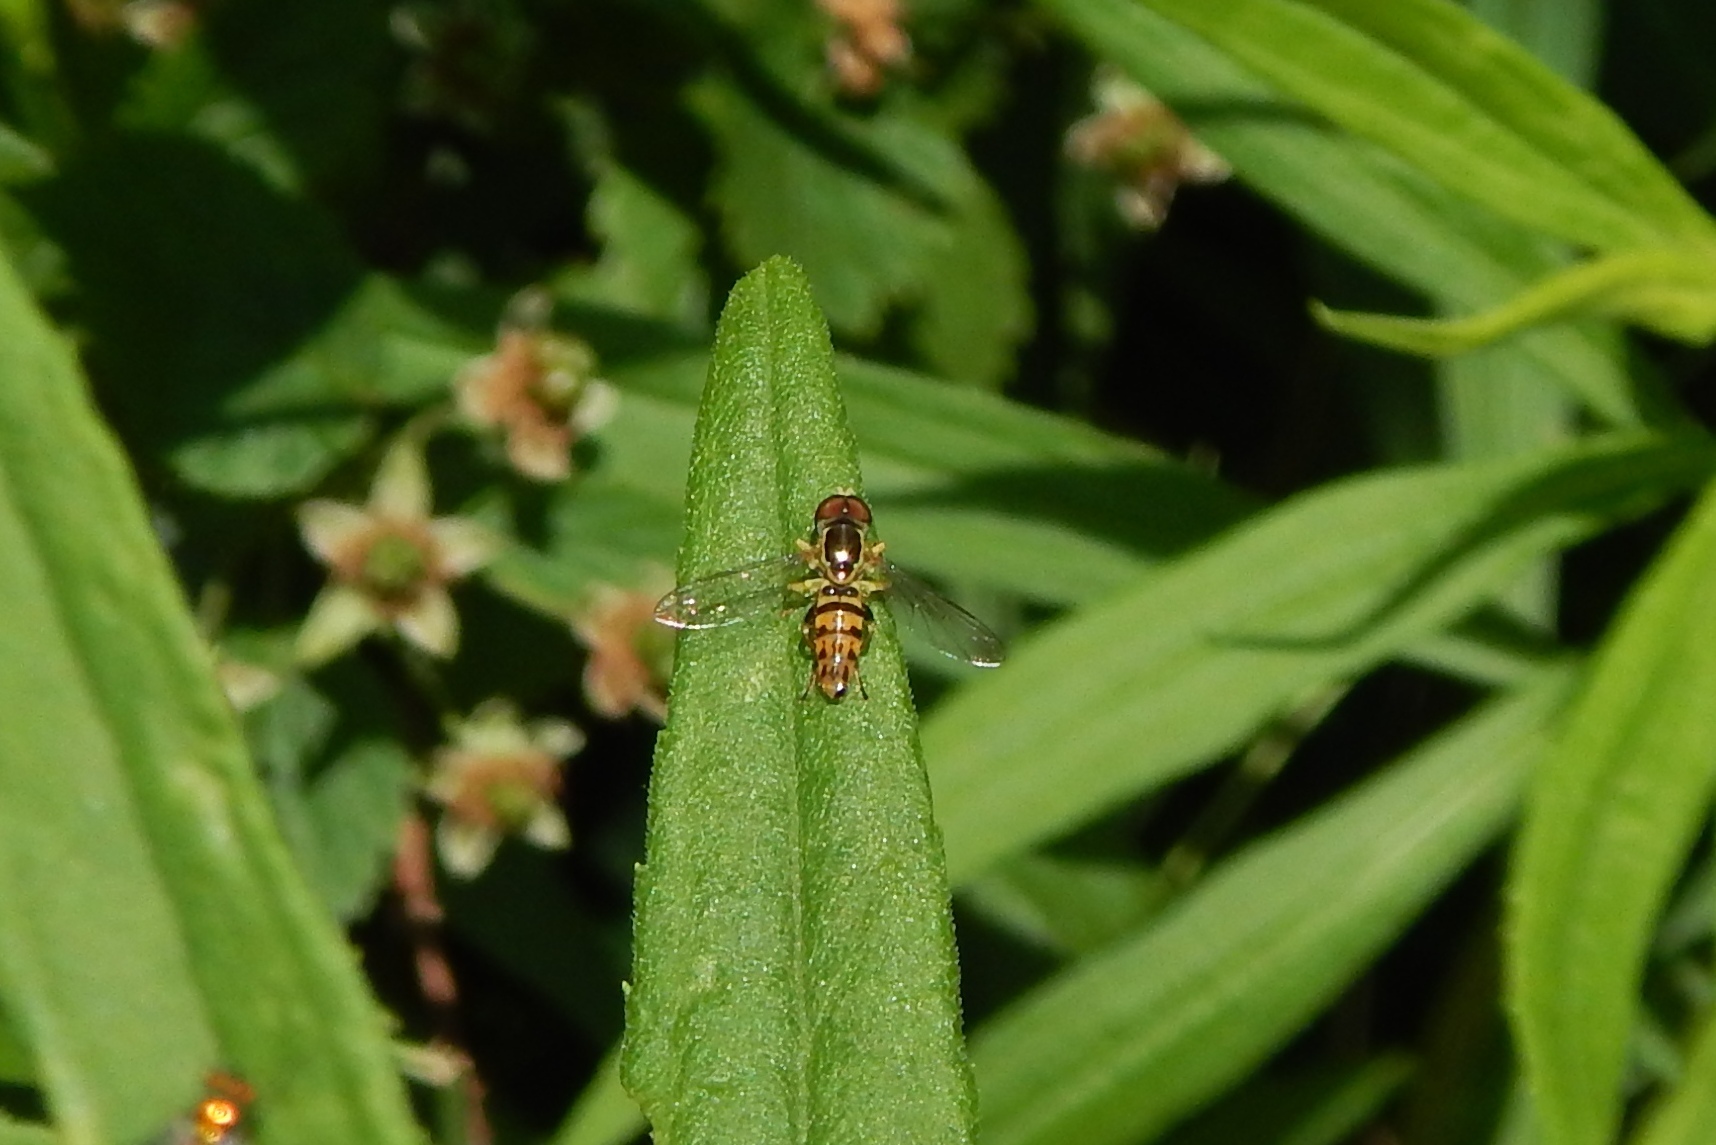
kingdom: Animalia
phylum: Arthropoda
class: Insecta
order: Diptera
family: Syrphidae
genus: Toxomerus
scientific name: Toxomerus geminatus
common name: Eastern calligrapher
